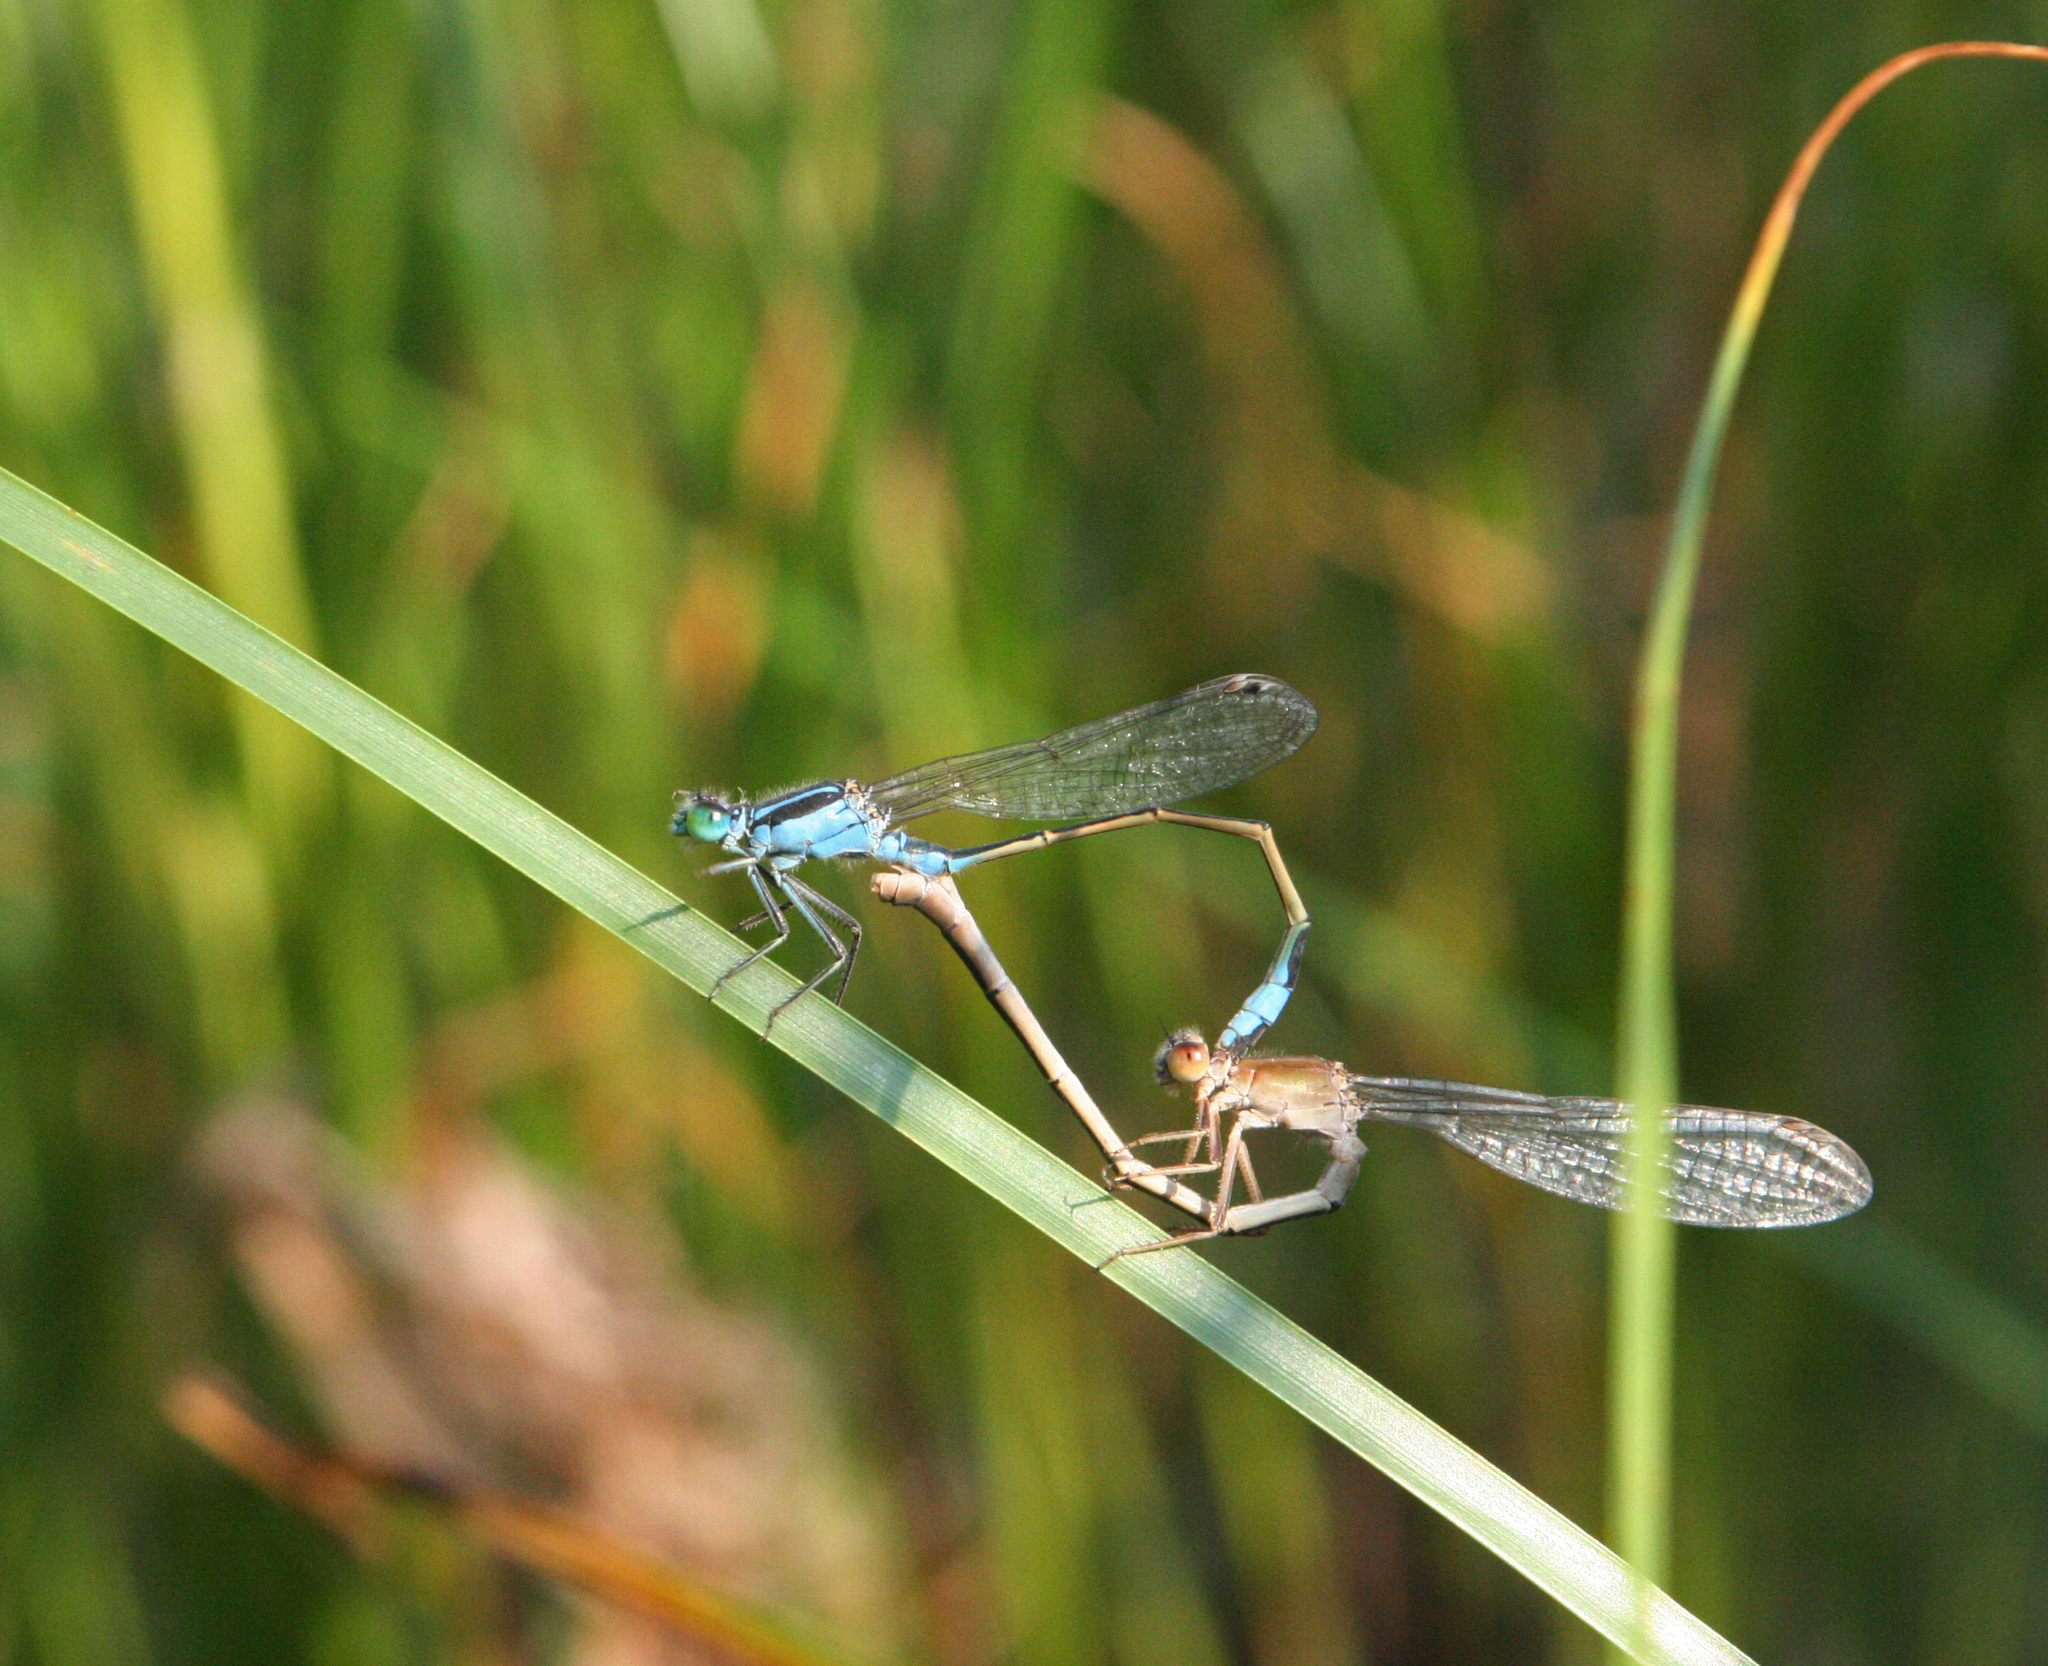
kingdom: Animalia
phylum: Arthropoda
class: Insecta
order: Odonata
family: Coenagrionidae
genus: Ischnura
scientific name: Ischnura fountaineae
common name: Oasis bluetail
